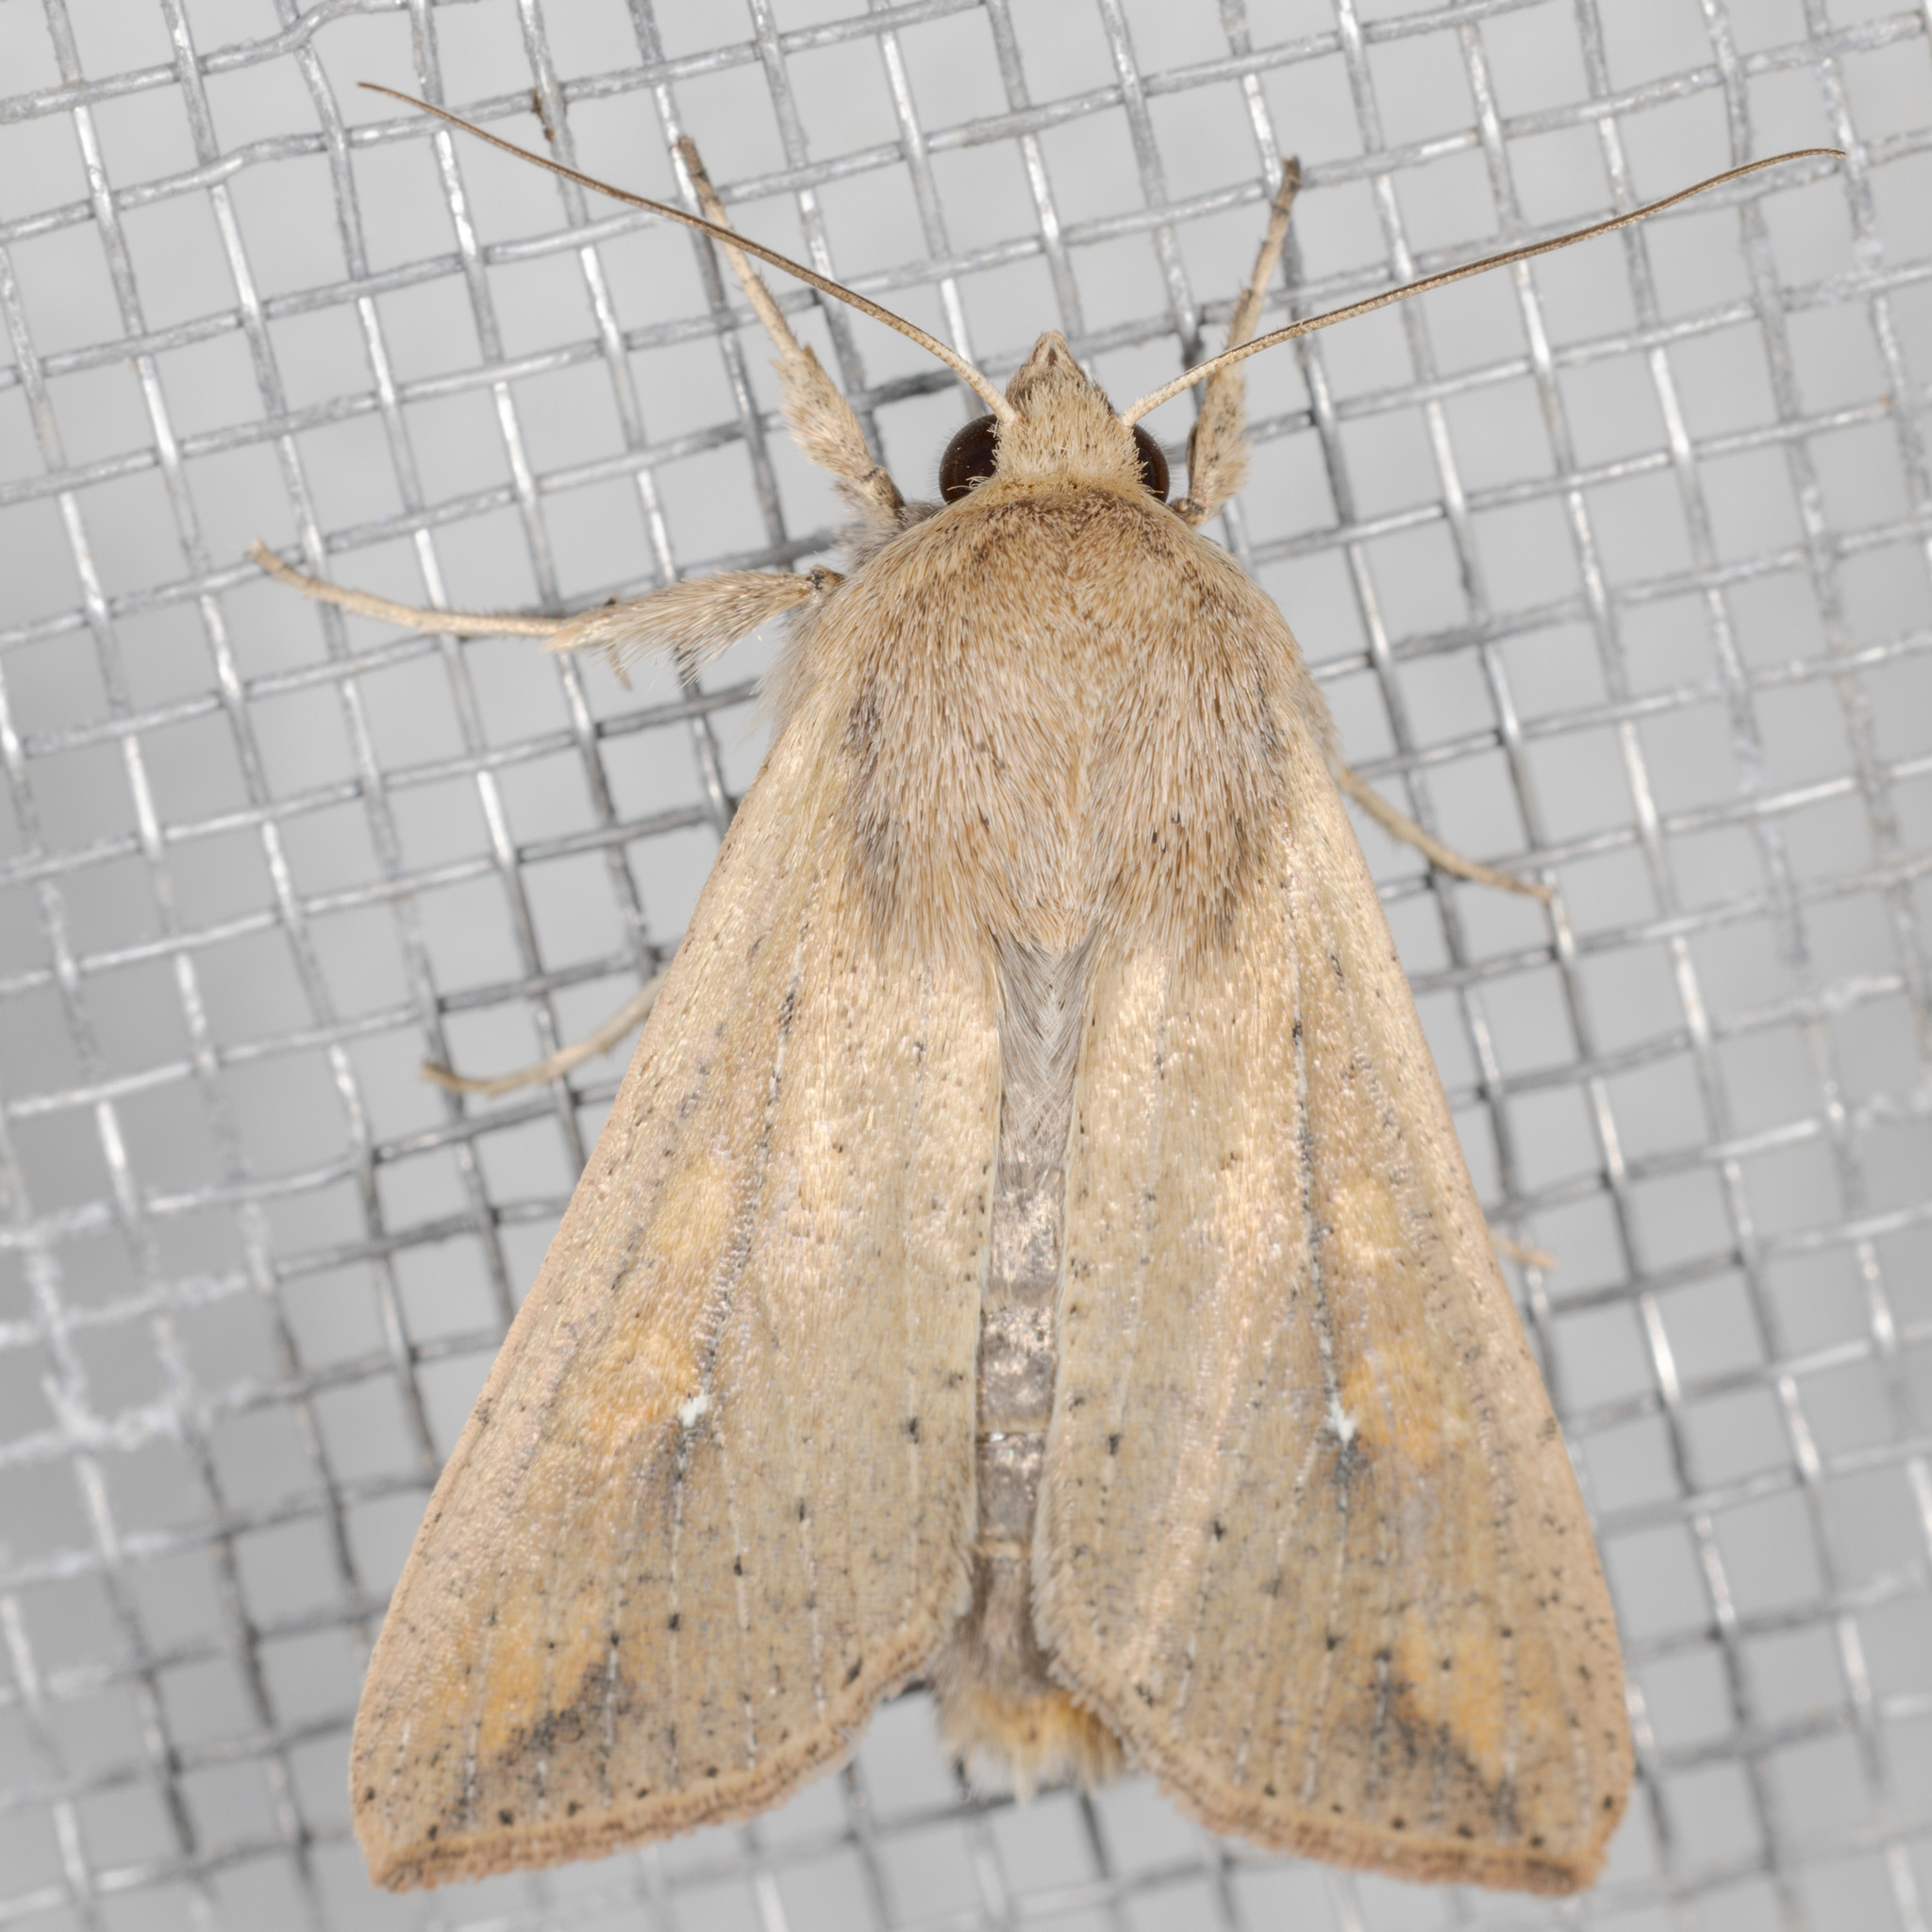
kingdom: Animalia
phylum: Arthropoda
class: Insecta
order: Lepidoptera
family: Noctuidae
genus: Mythimna
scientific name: Mythimna unipuncta
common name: White-speck
